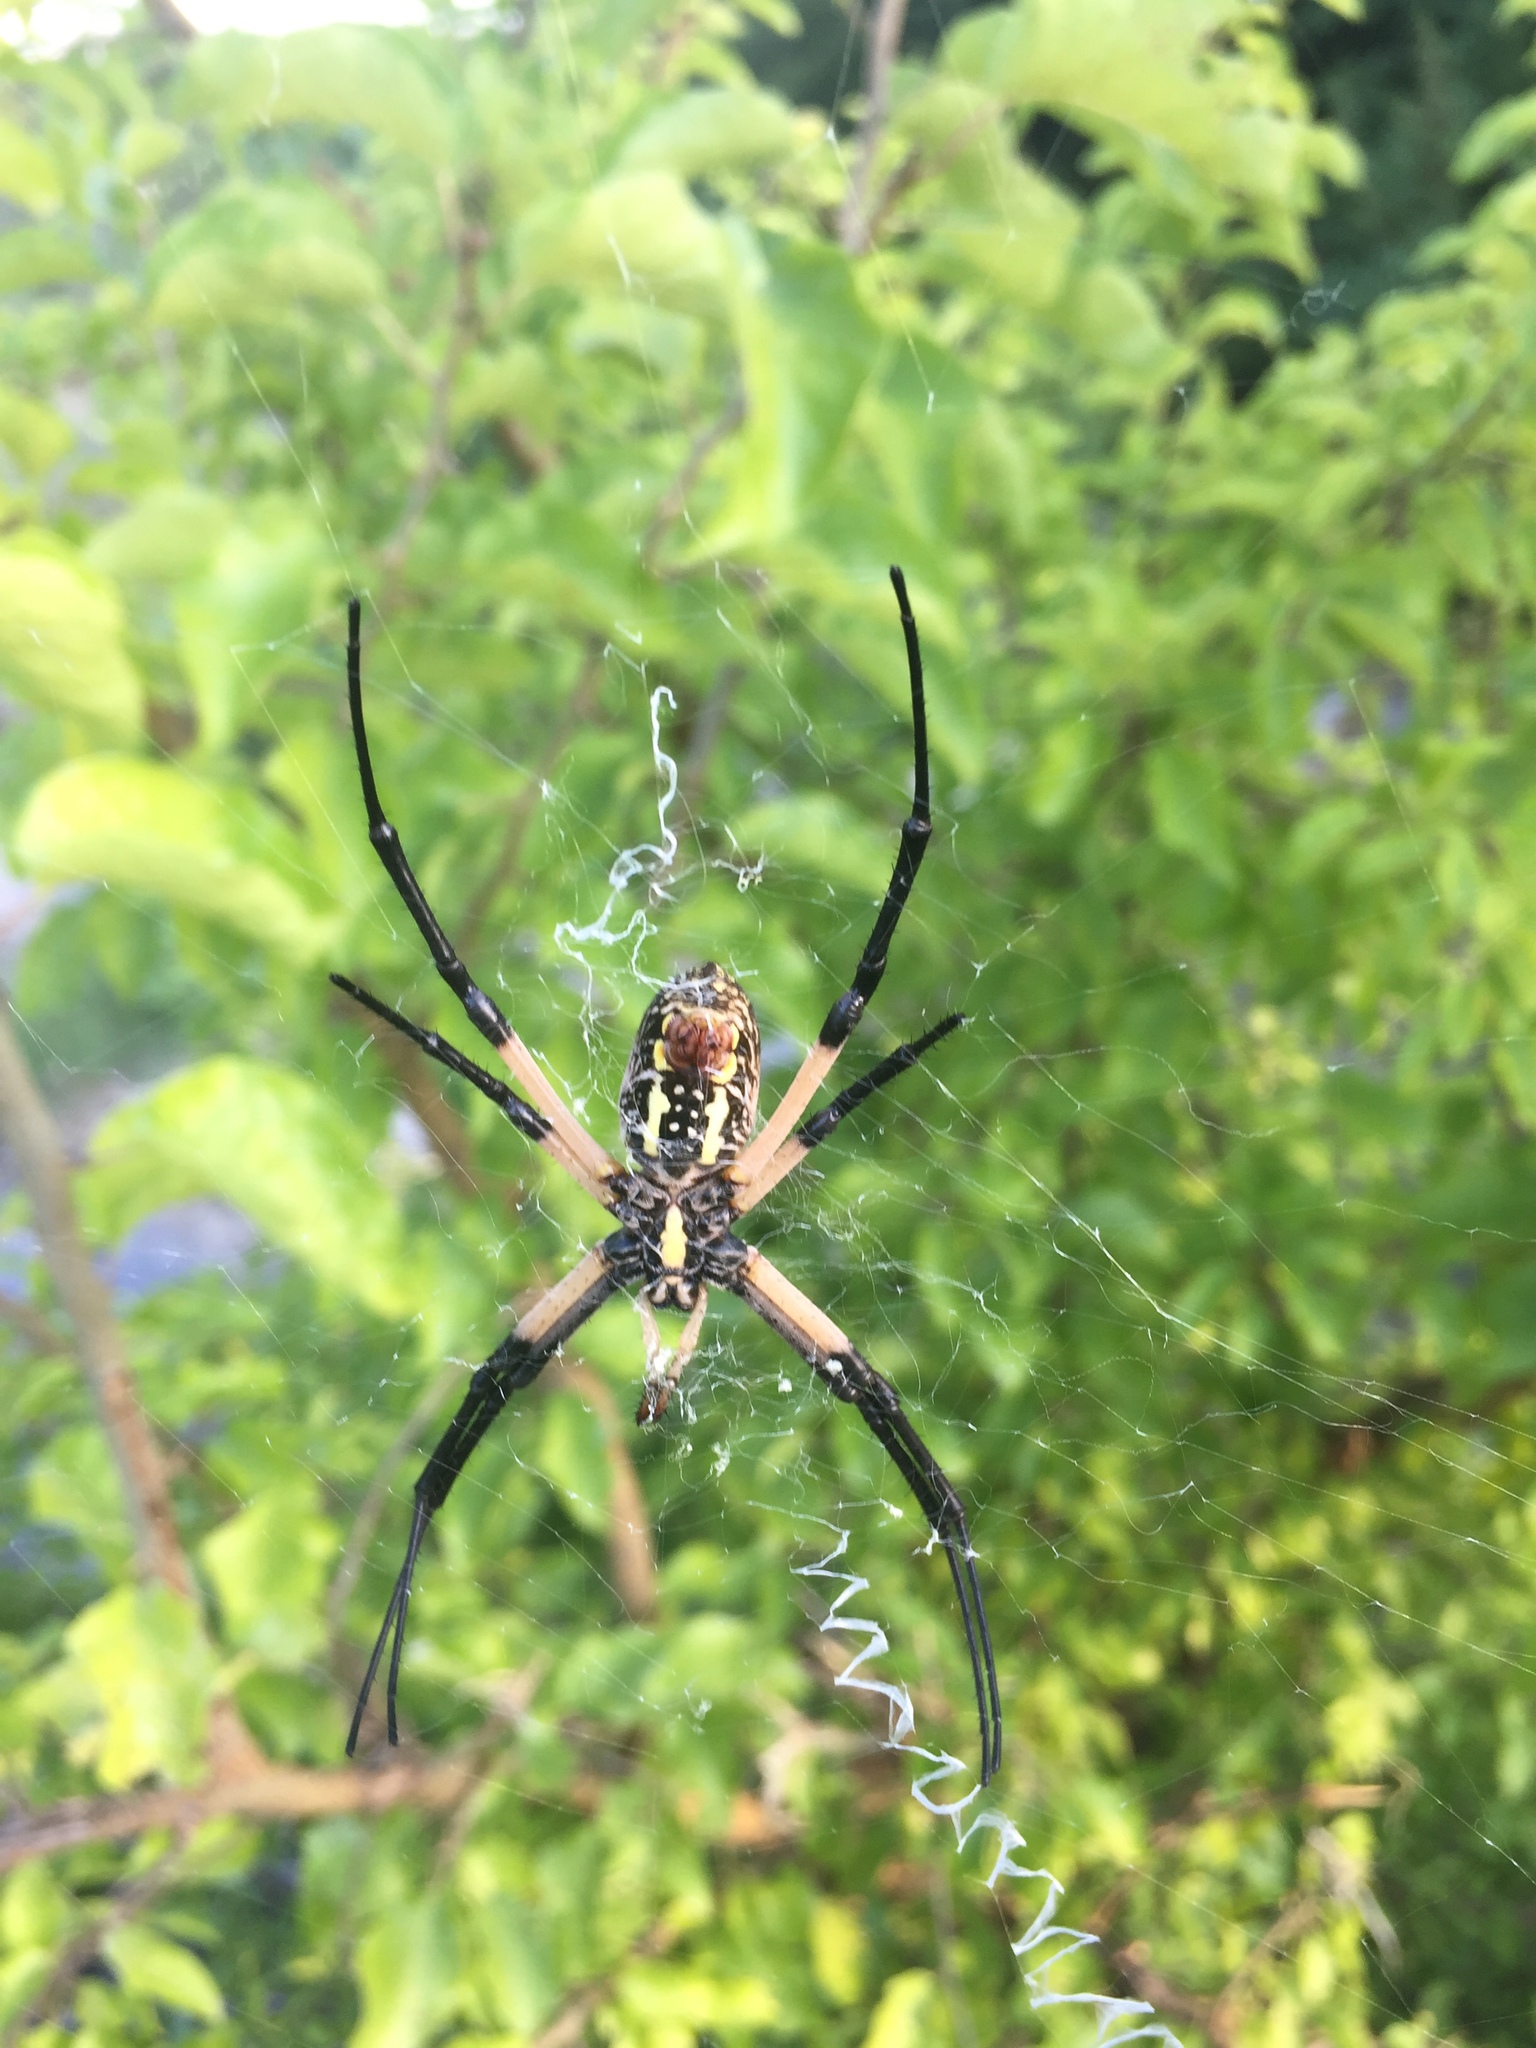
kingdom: Animalia
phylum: Arthropoda
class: Arachnida
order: Araneae
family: Araneidae
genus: Argiope
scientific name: Argiope aurantia
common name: Orb weavers
